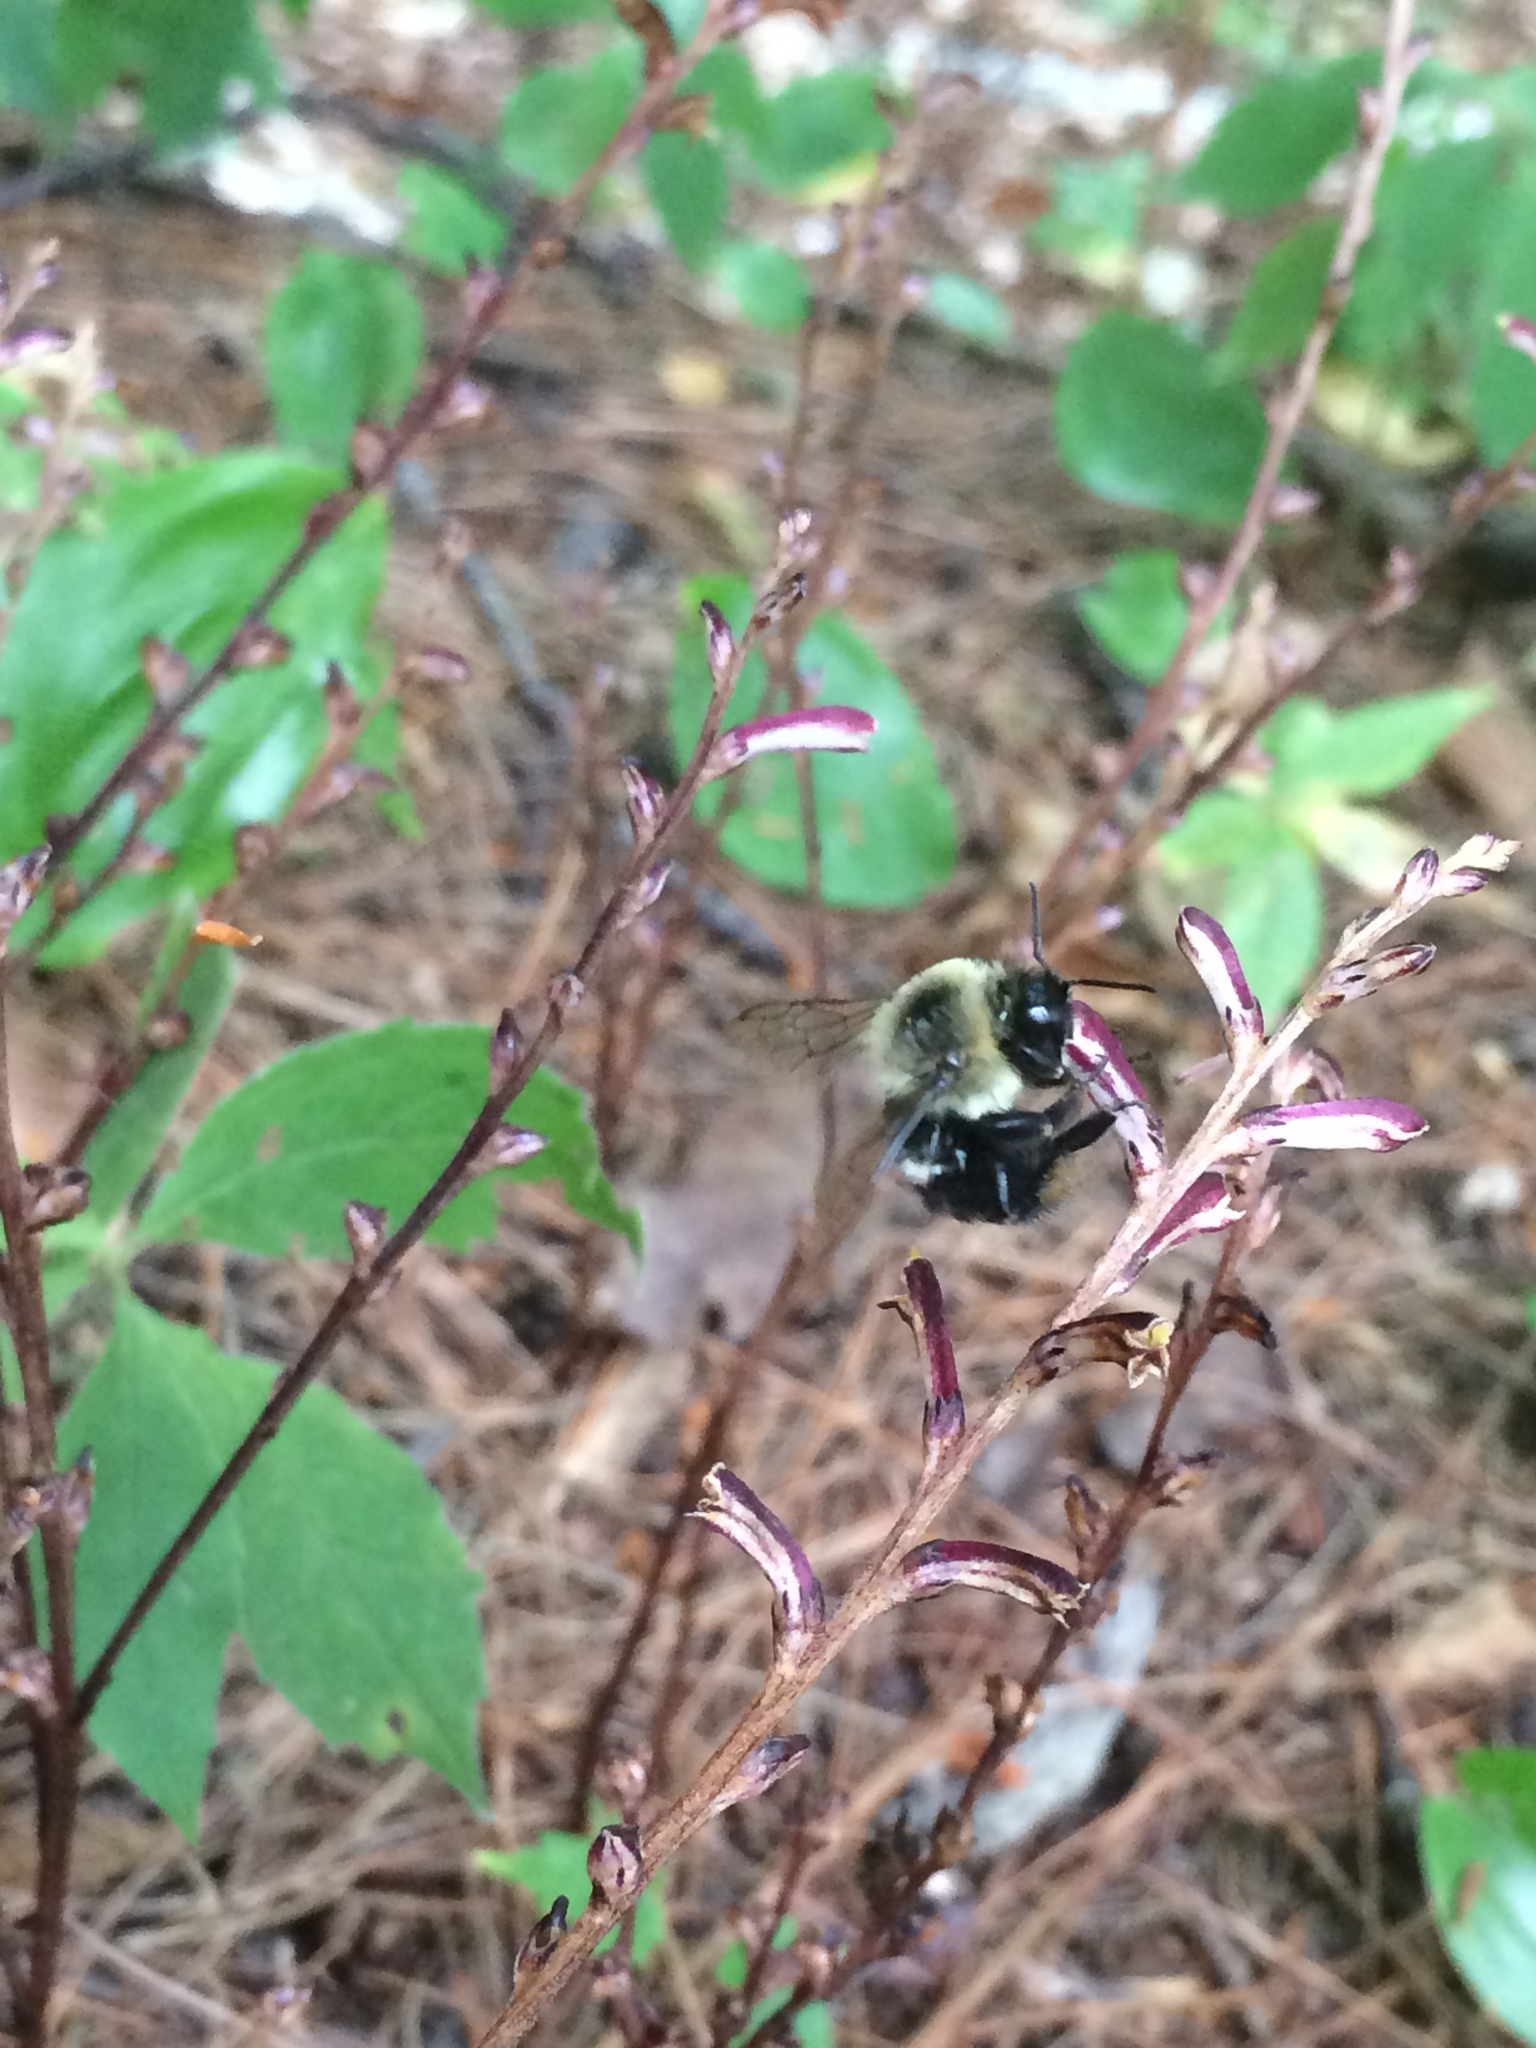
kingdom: Animalia
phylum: Arthropoda
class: Insecta
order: Hymenoptera
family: Apidae
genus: Bombus
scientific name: Bombus impatiens
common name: Common eastern bumble bee
